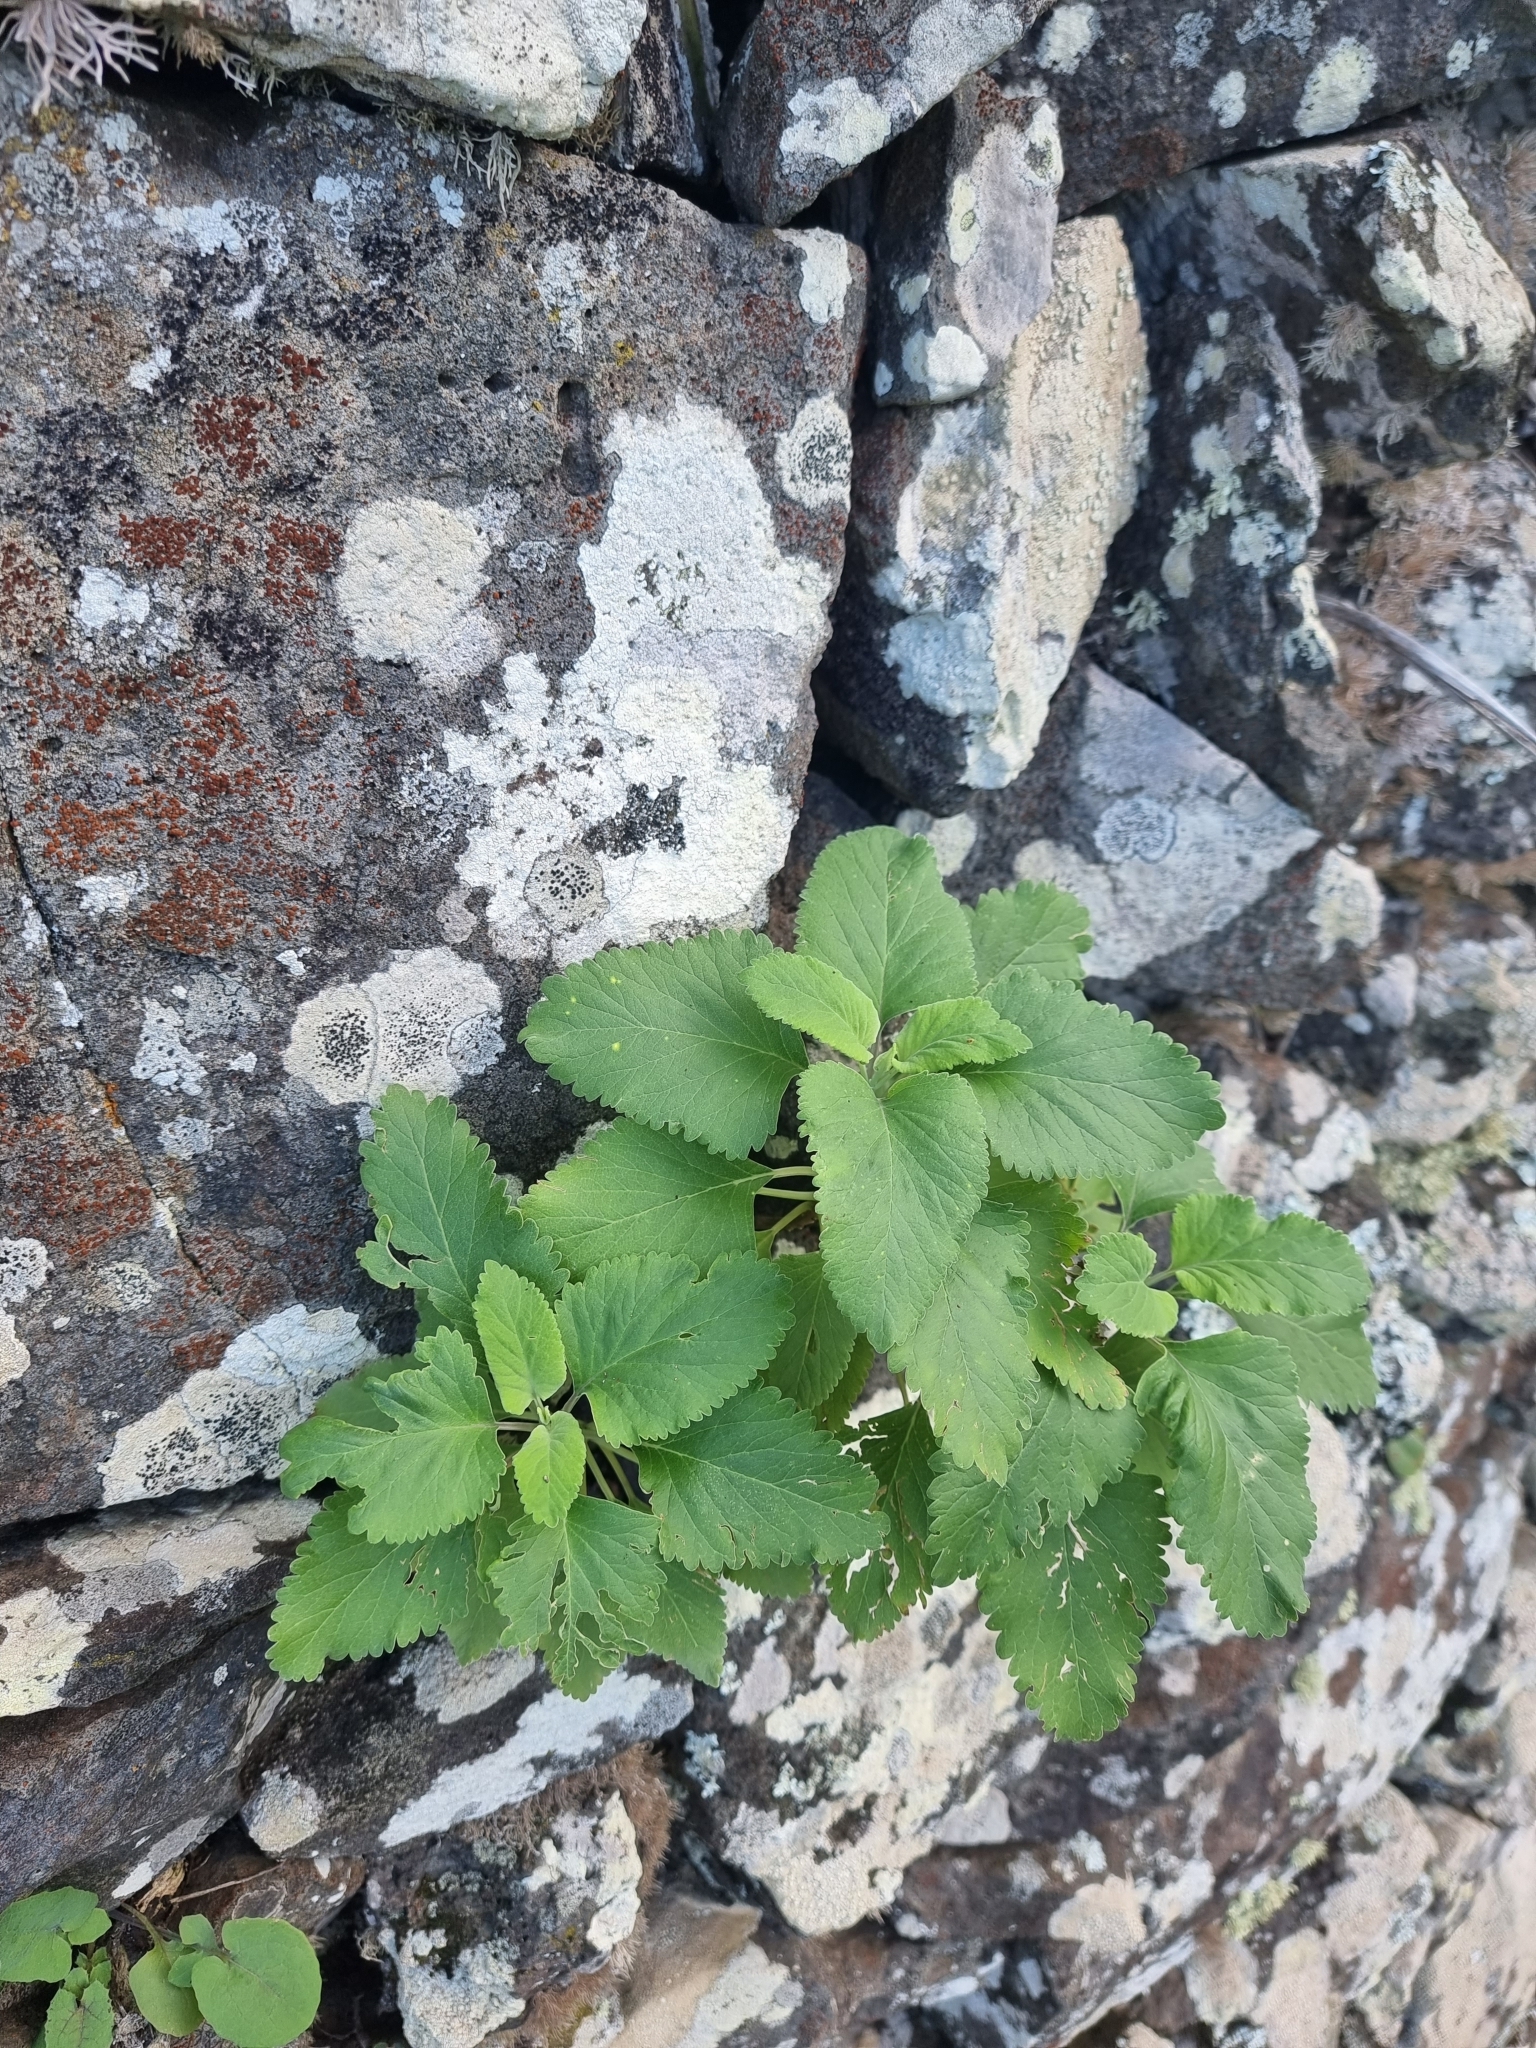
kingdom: Plantae
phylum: Tracheophyta
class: Magnoliopsida
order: Lamiales
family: Lamiaceae
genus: Teucrium
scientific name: Teucrium betonicum
